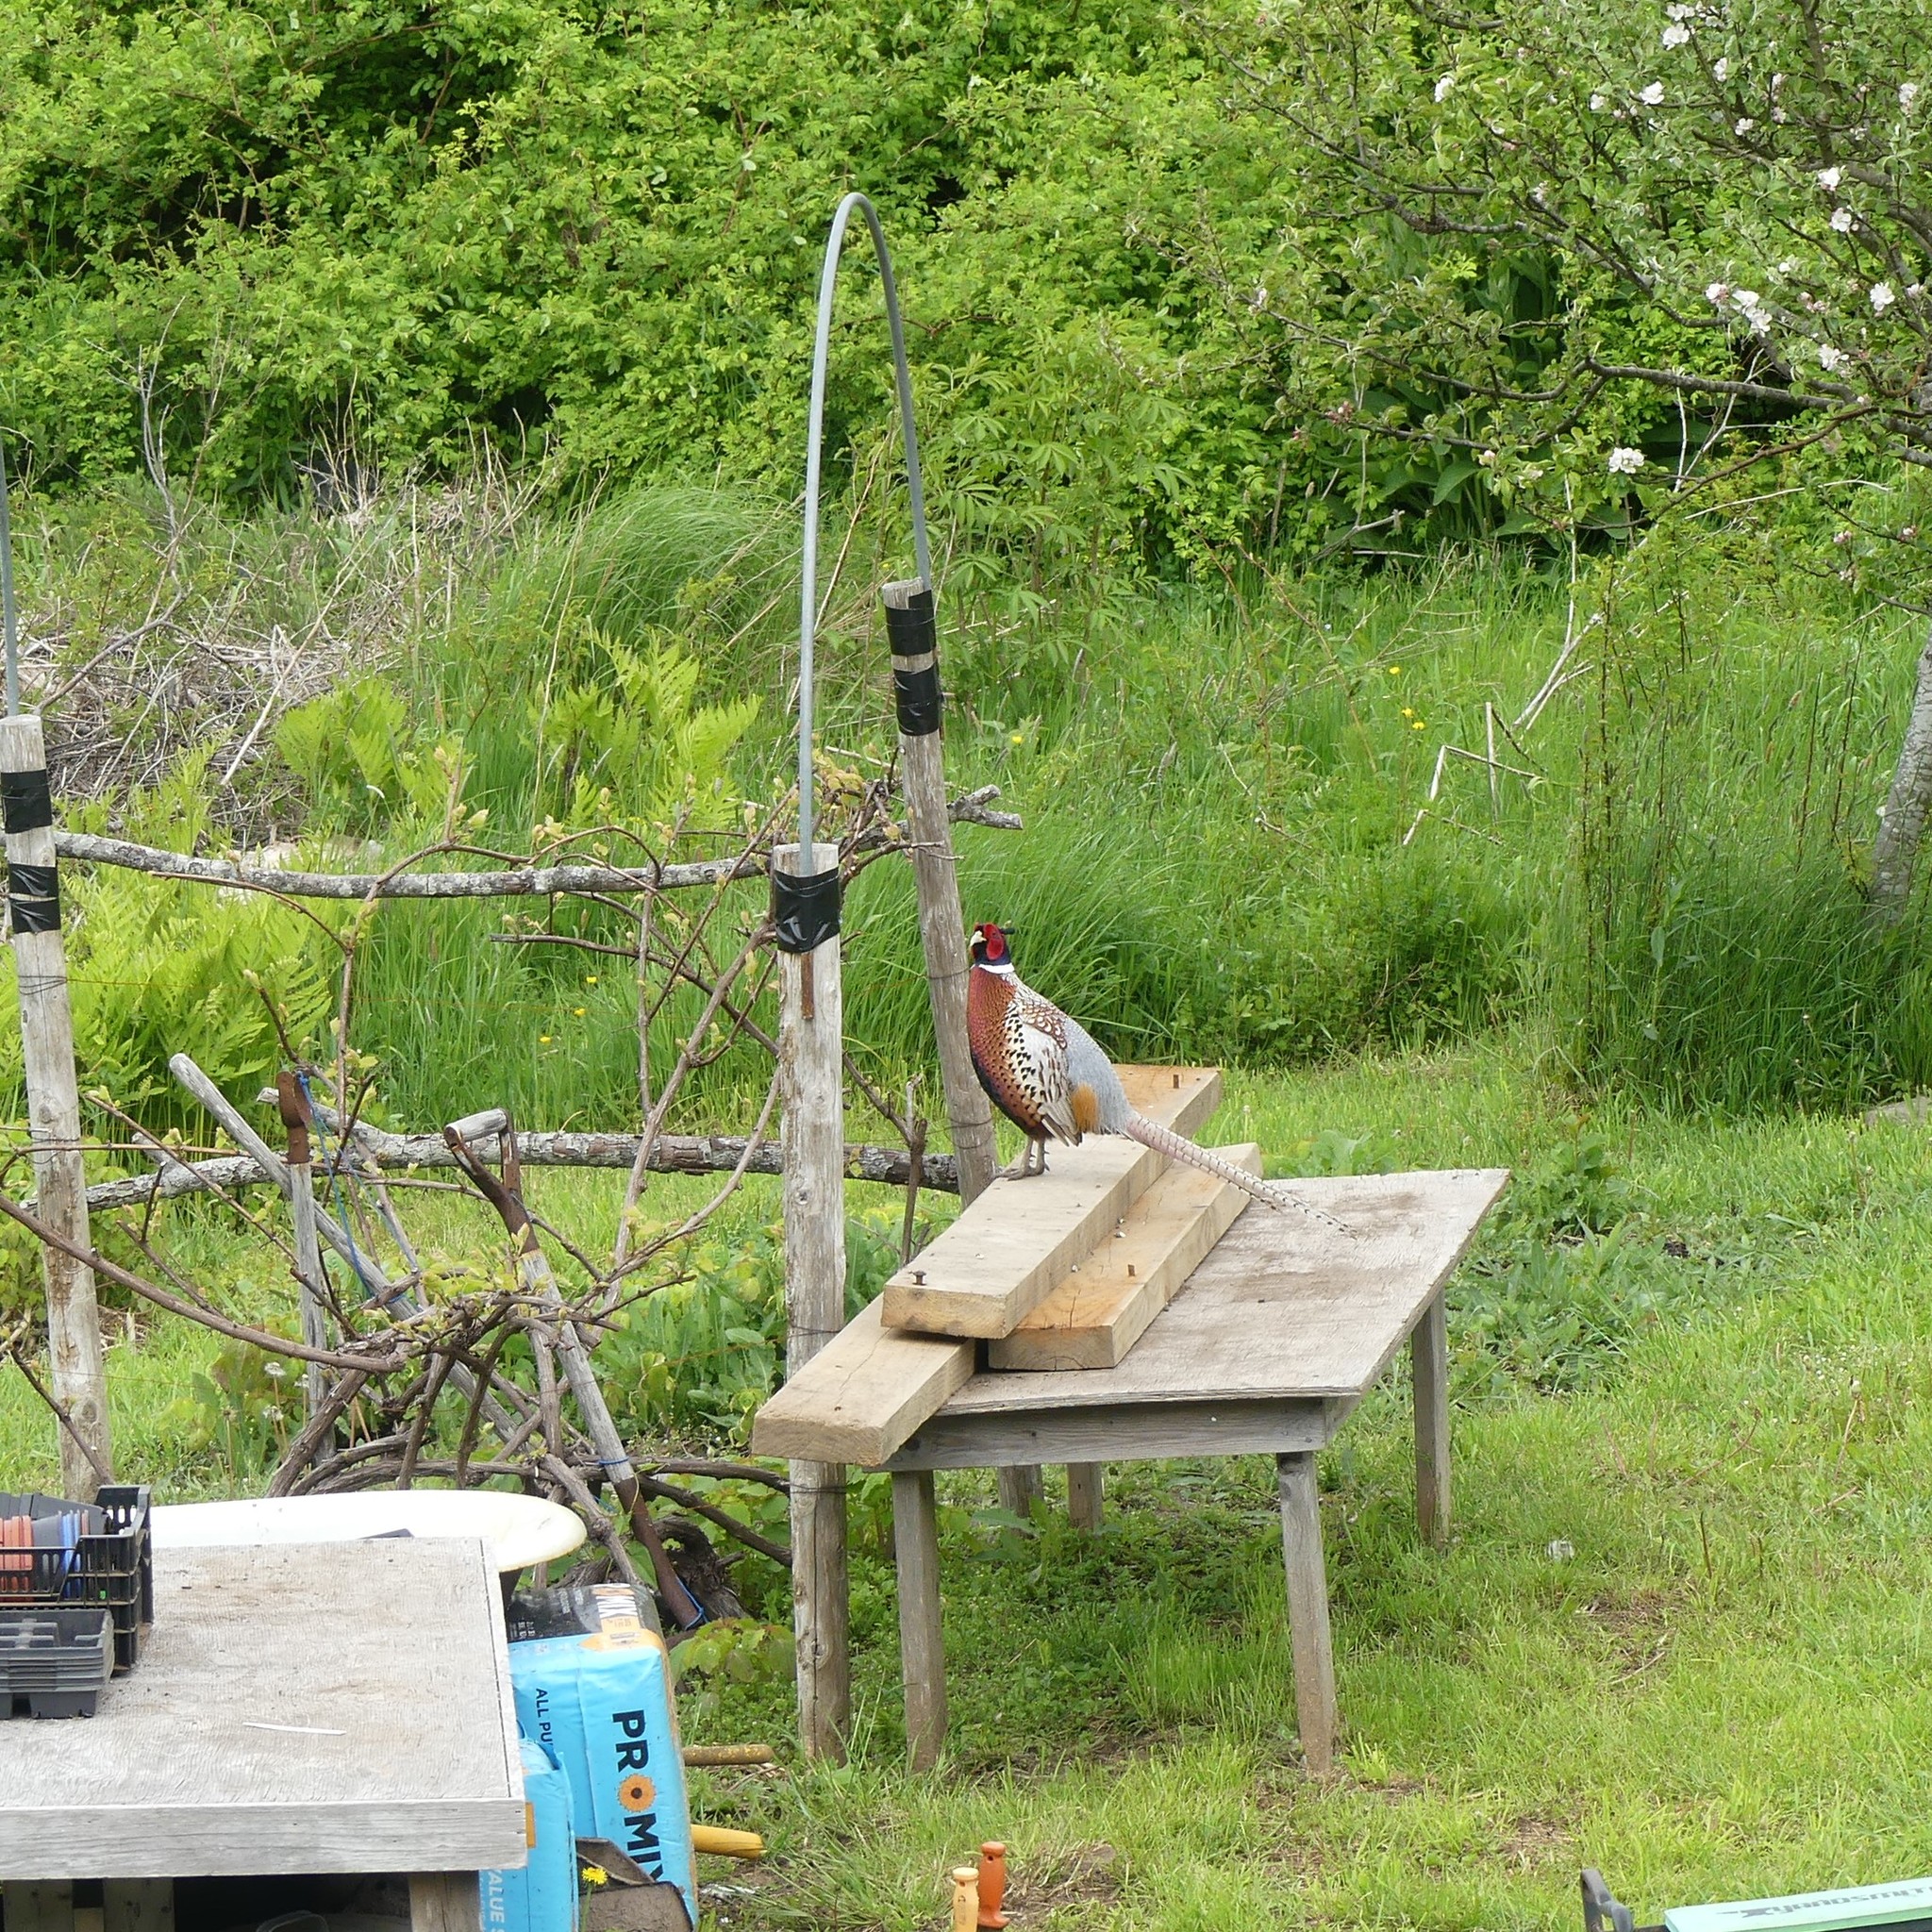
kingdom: Animalia
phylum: Chordata
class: Aves
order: Galliformes
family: Phasianidae
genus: Phasianus
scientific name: Phasianus colchicus
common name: Common pheasant
